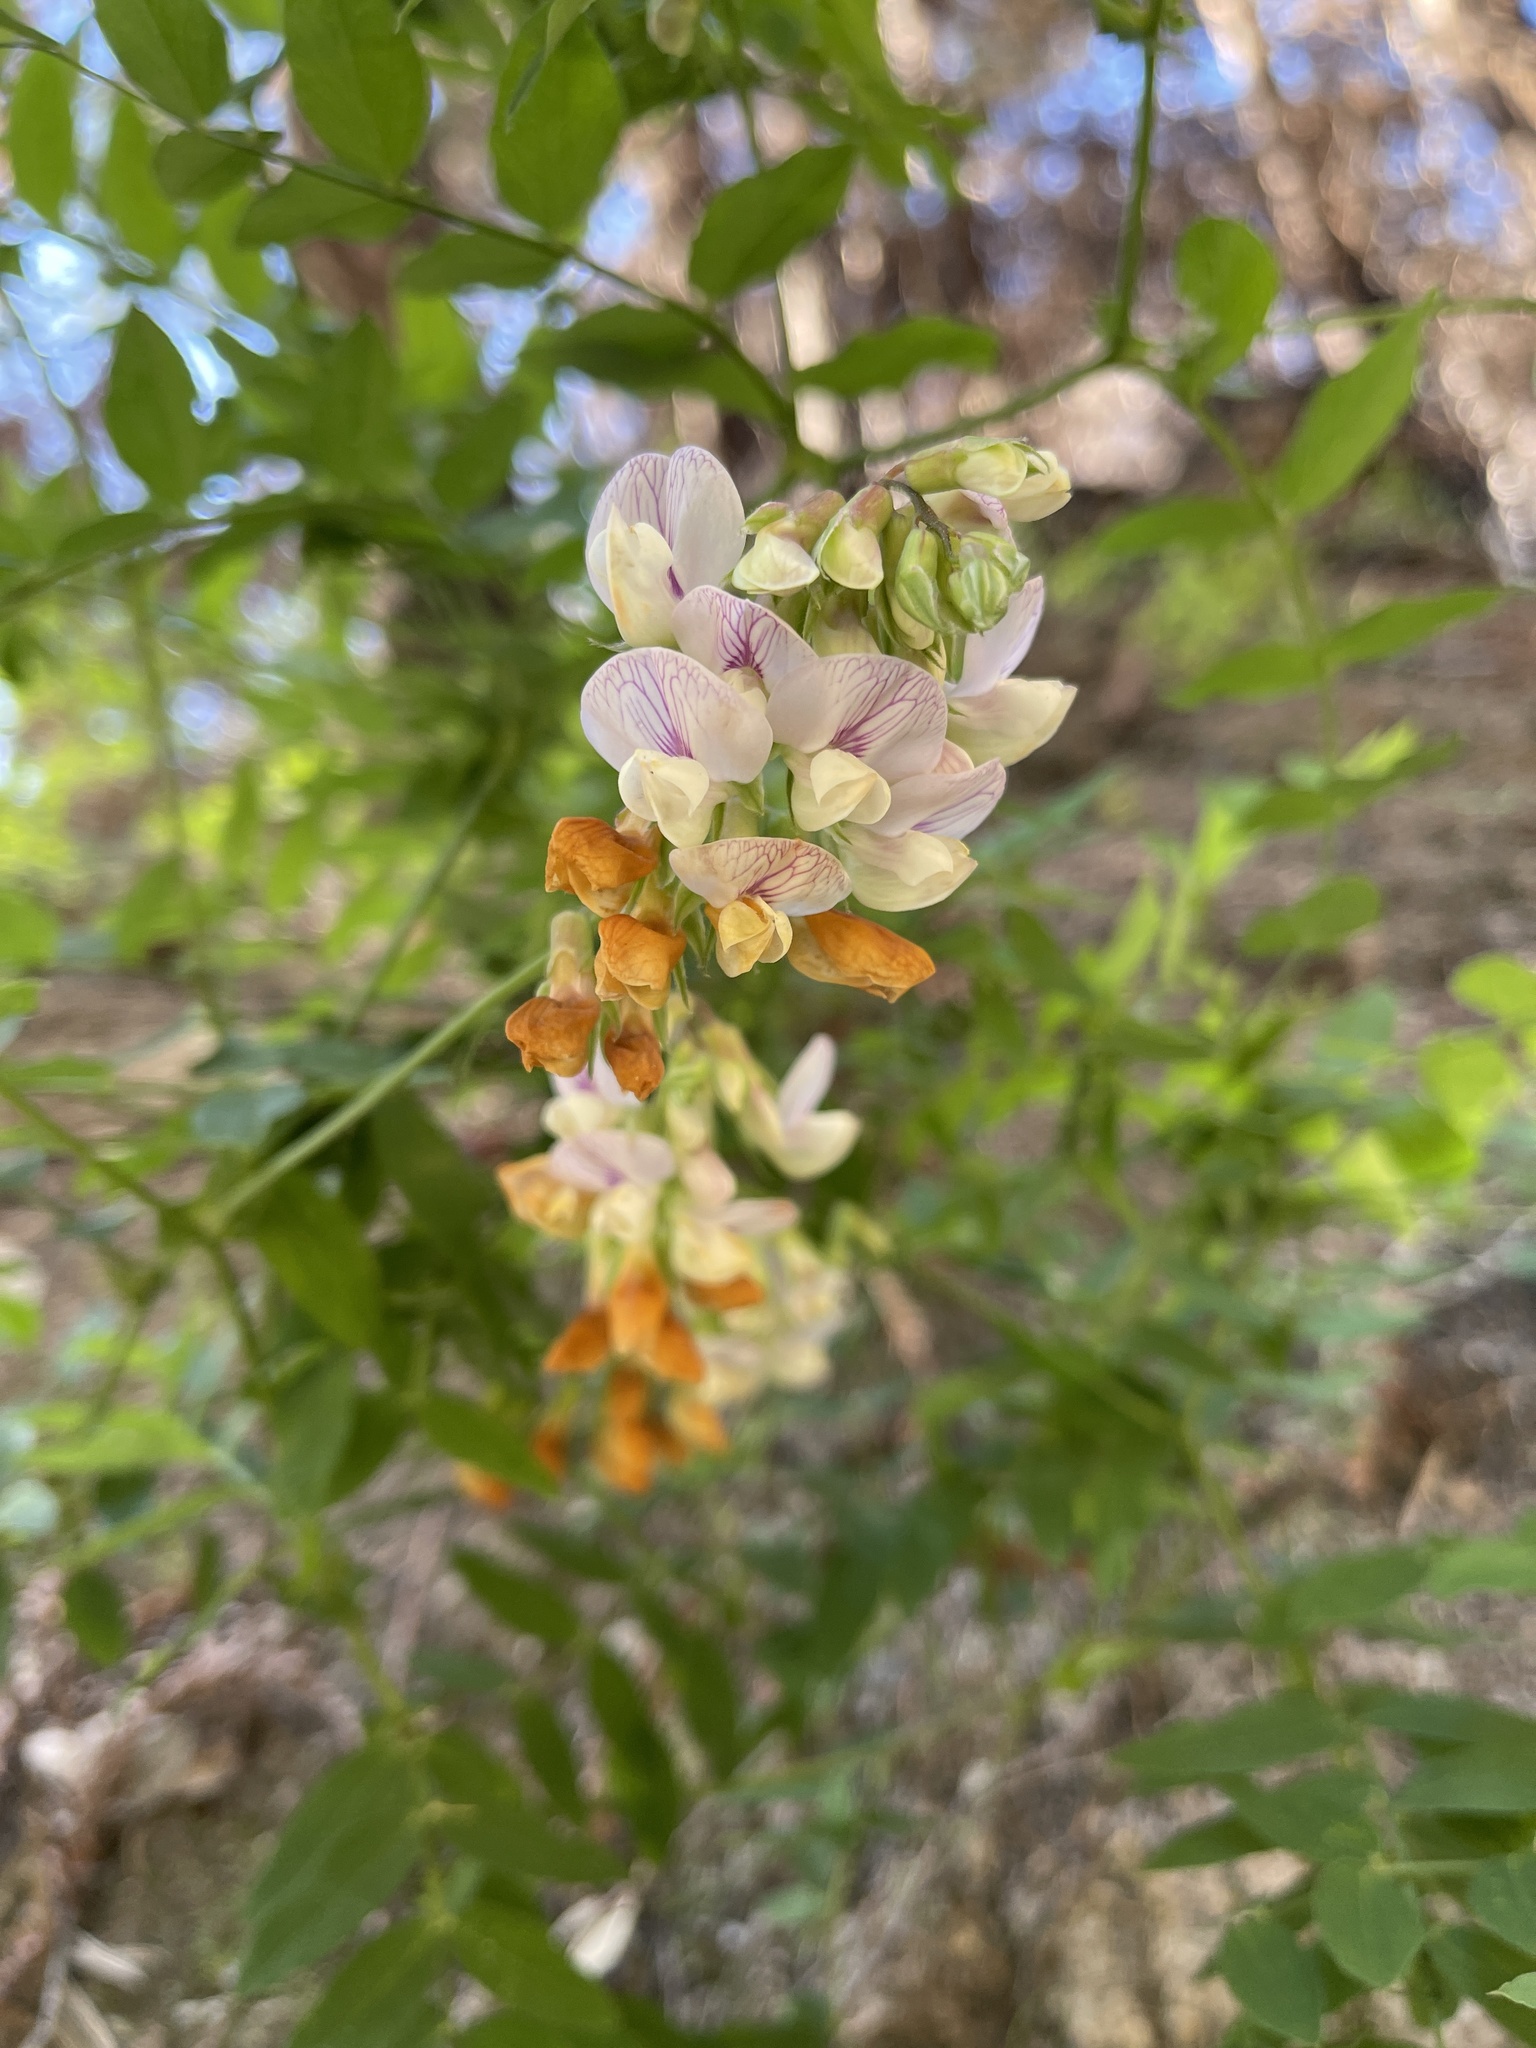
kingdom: Plantae
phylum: Tracheophyta
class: Magnoliopsida
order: Fabales
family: Fabaceae
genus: Lathyrus
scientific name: Lathyrus vestitus
